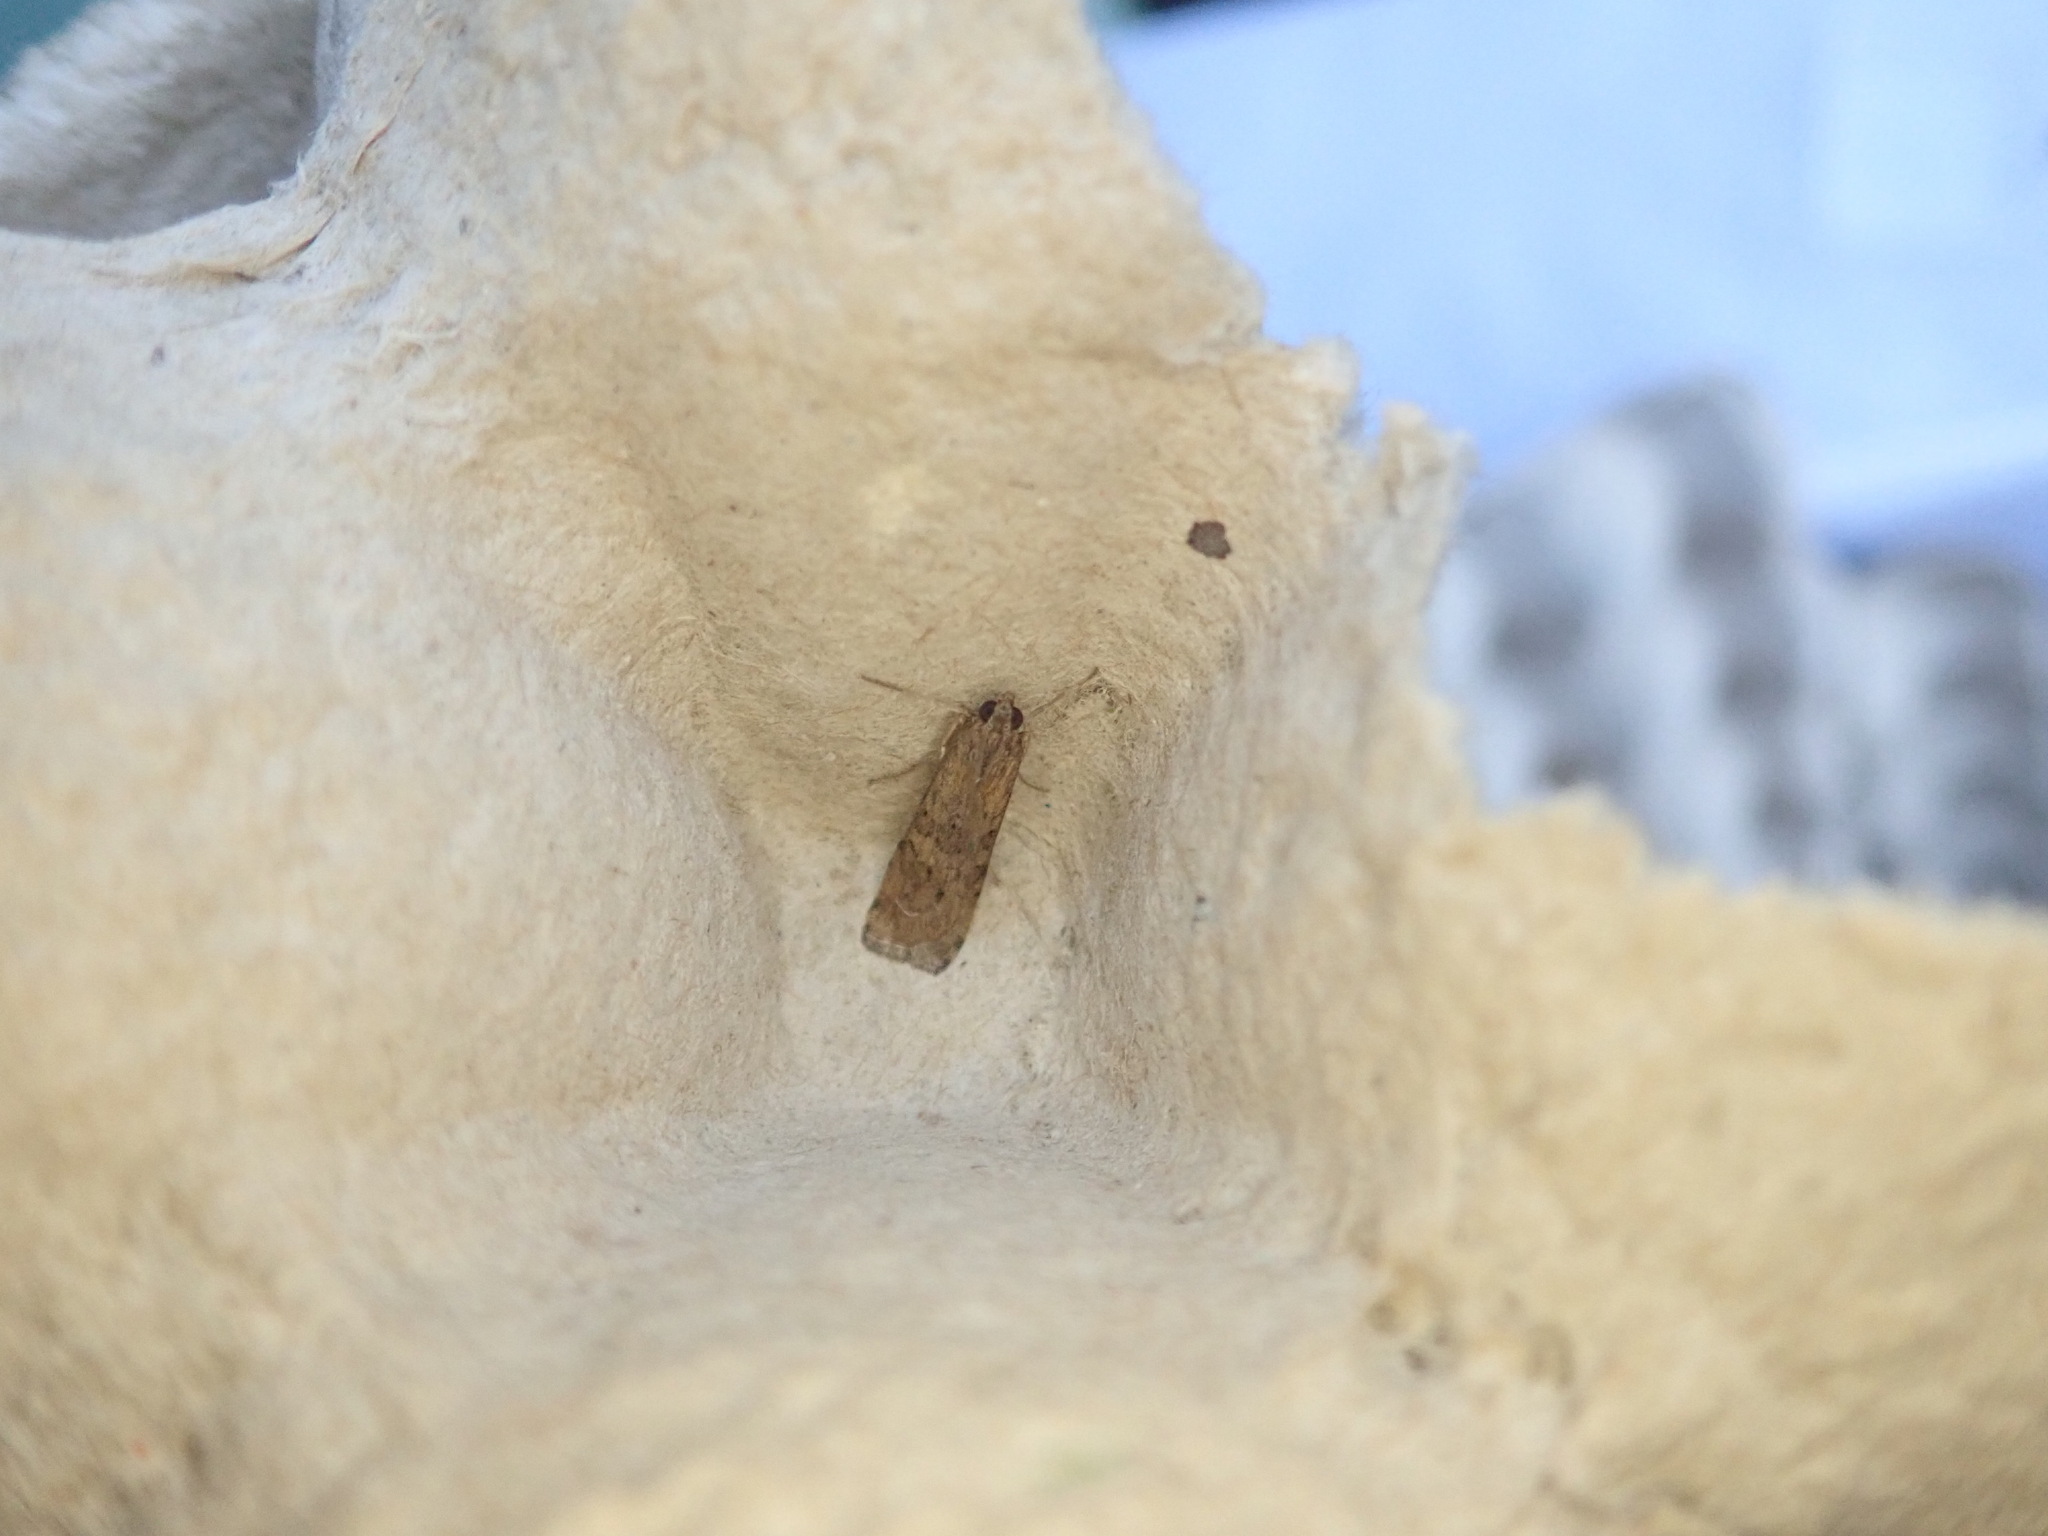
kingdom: Animalia
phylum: Arthropoda
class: Insecta
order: Lepidoptera
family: Crambidae
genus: Nomophila
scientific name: Nomophila noctuella
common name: Rush veneer
